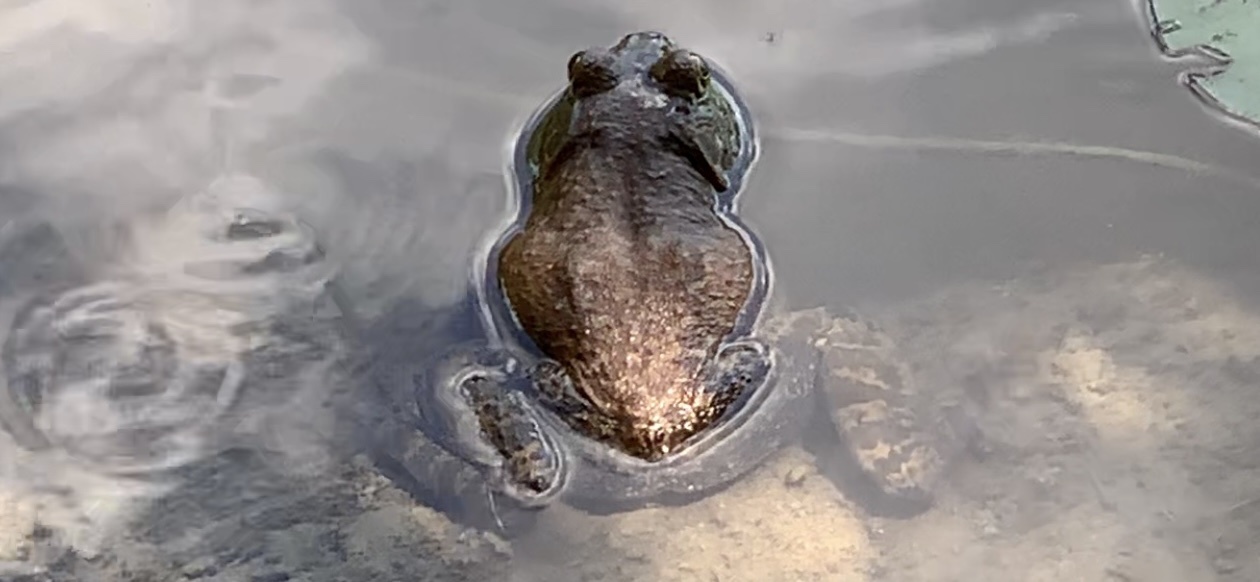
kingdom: Animalia
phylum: Chordata
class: Amphibia
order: Anura
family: Ranidae
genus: Lithobates
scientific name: Lithobates catesbeianus
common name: American bullfrog
